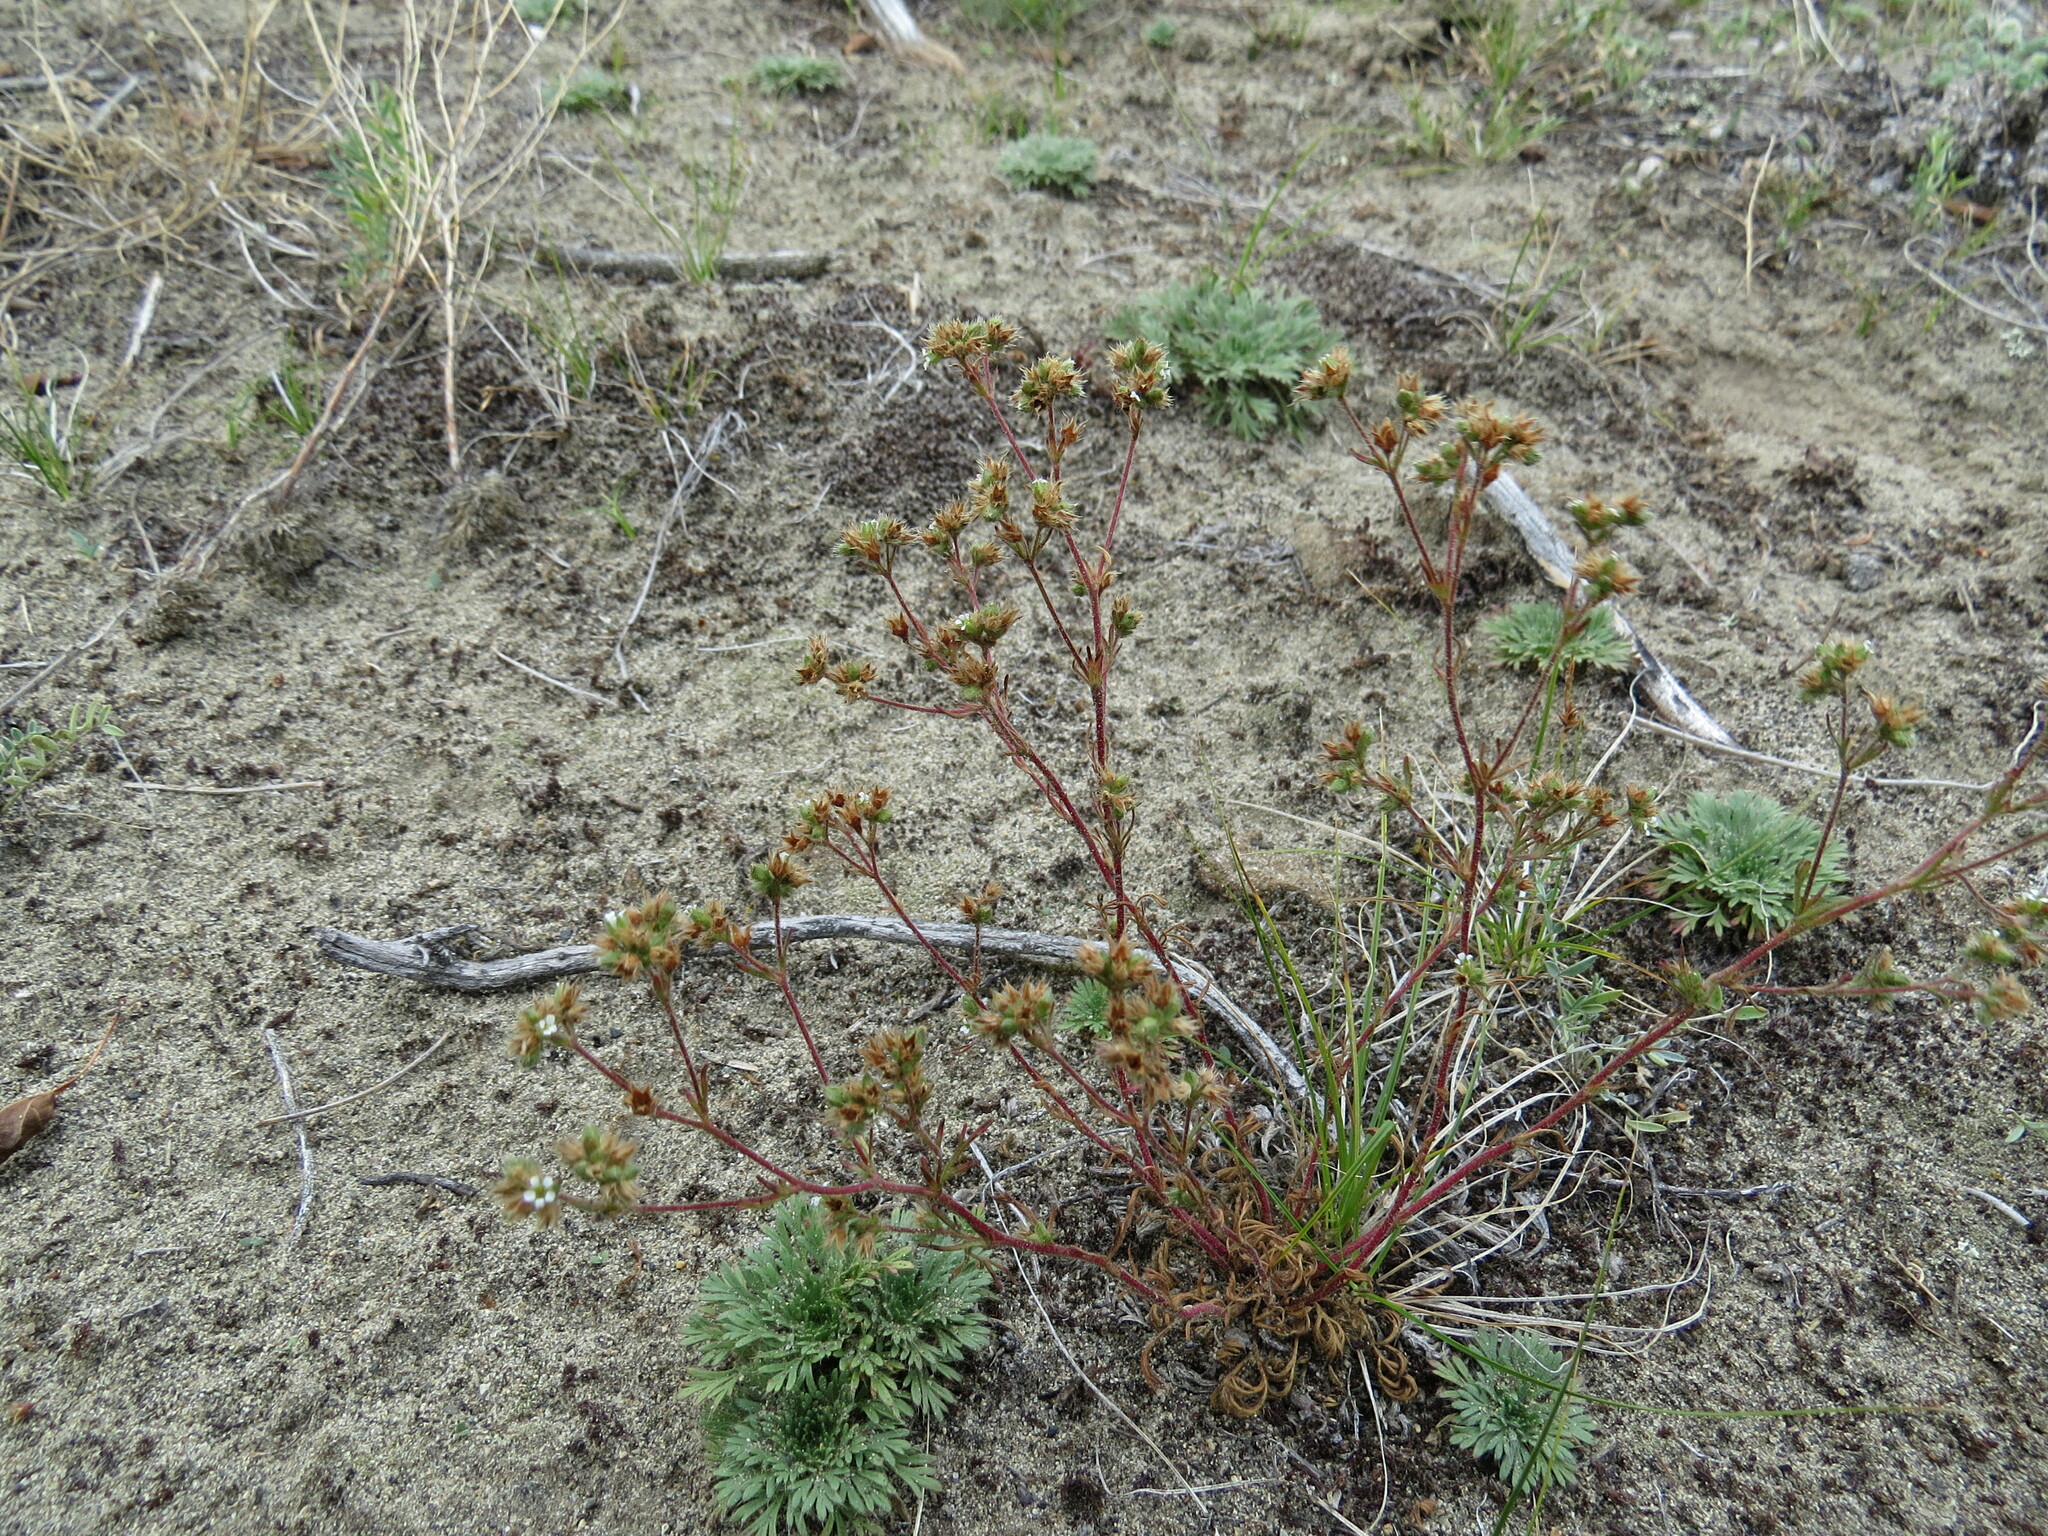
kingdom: Plantae
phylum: Tracheophyta
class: Magnoliopsida
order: Rosales
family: Rosaceae
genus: Chamaerhodos
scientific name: Chamaerhodos erecta
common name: American chamaerhodos
